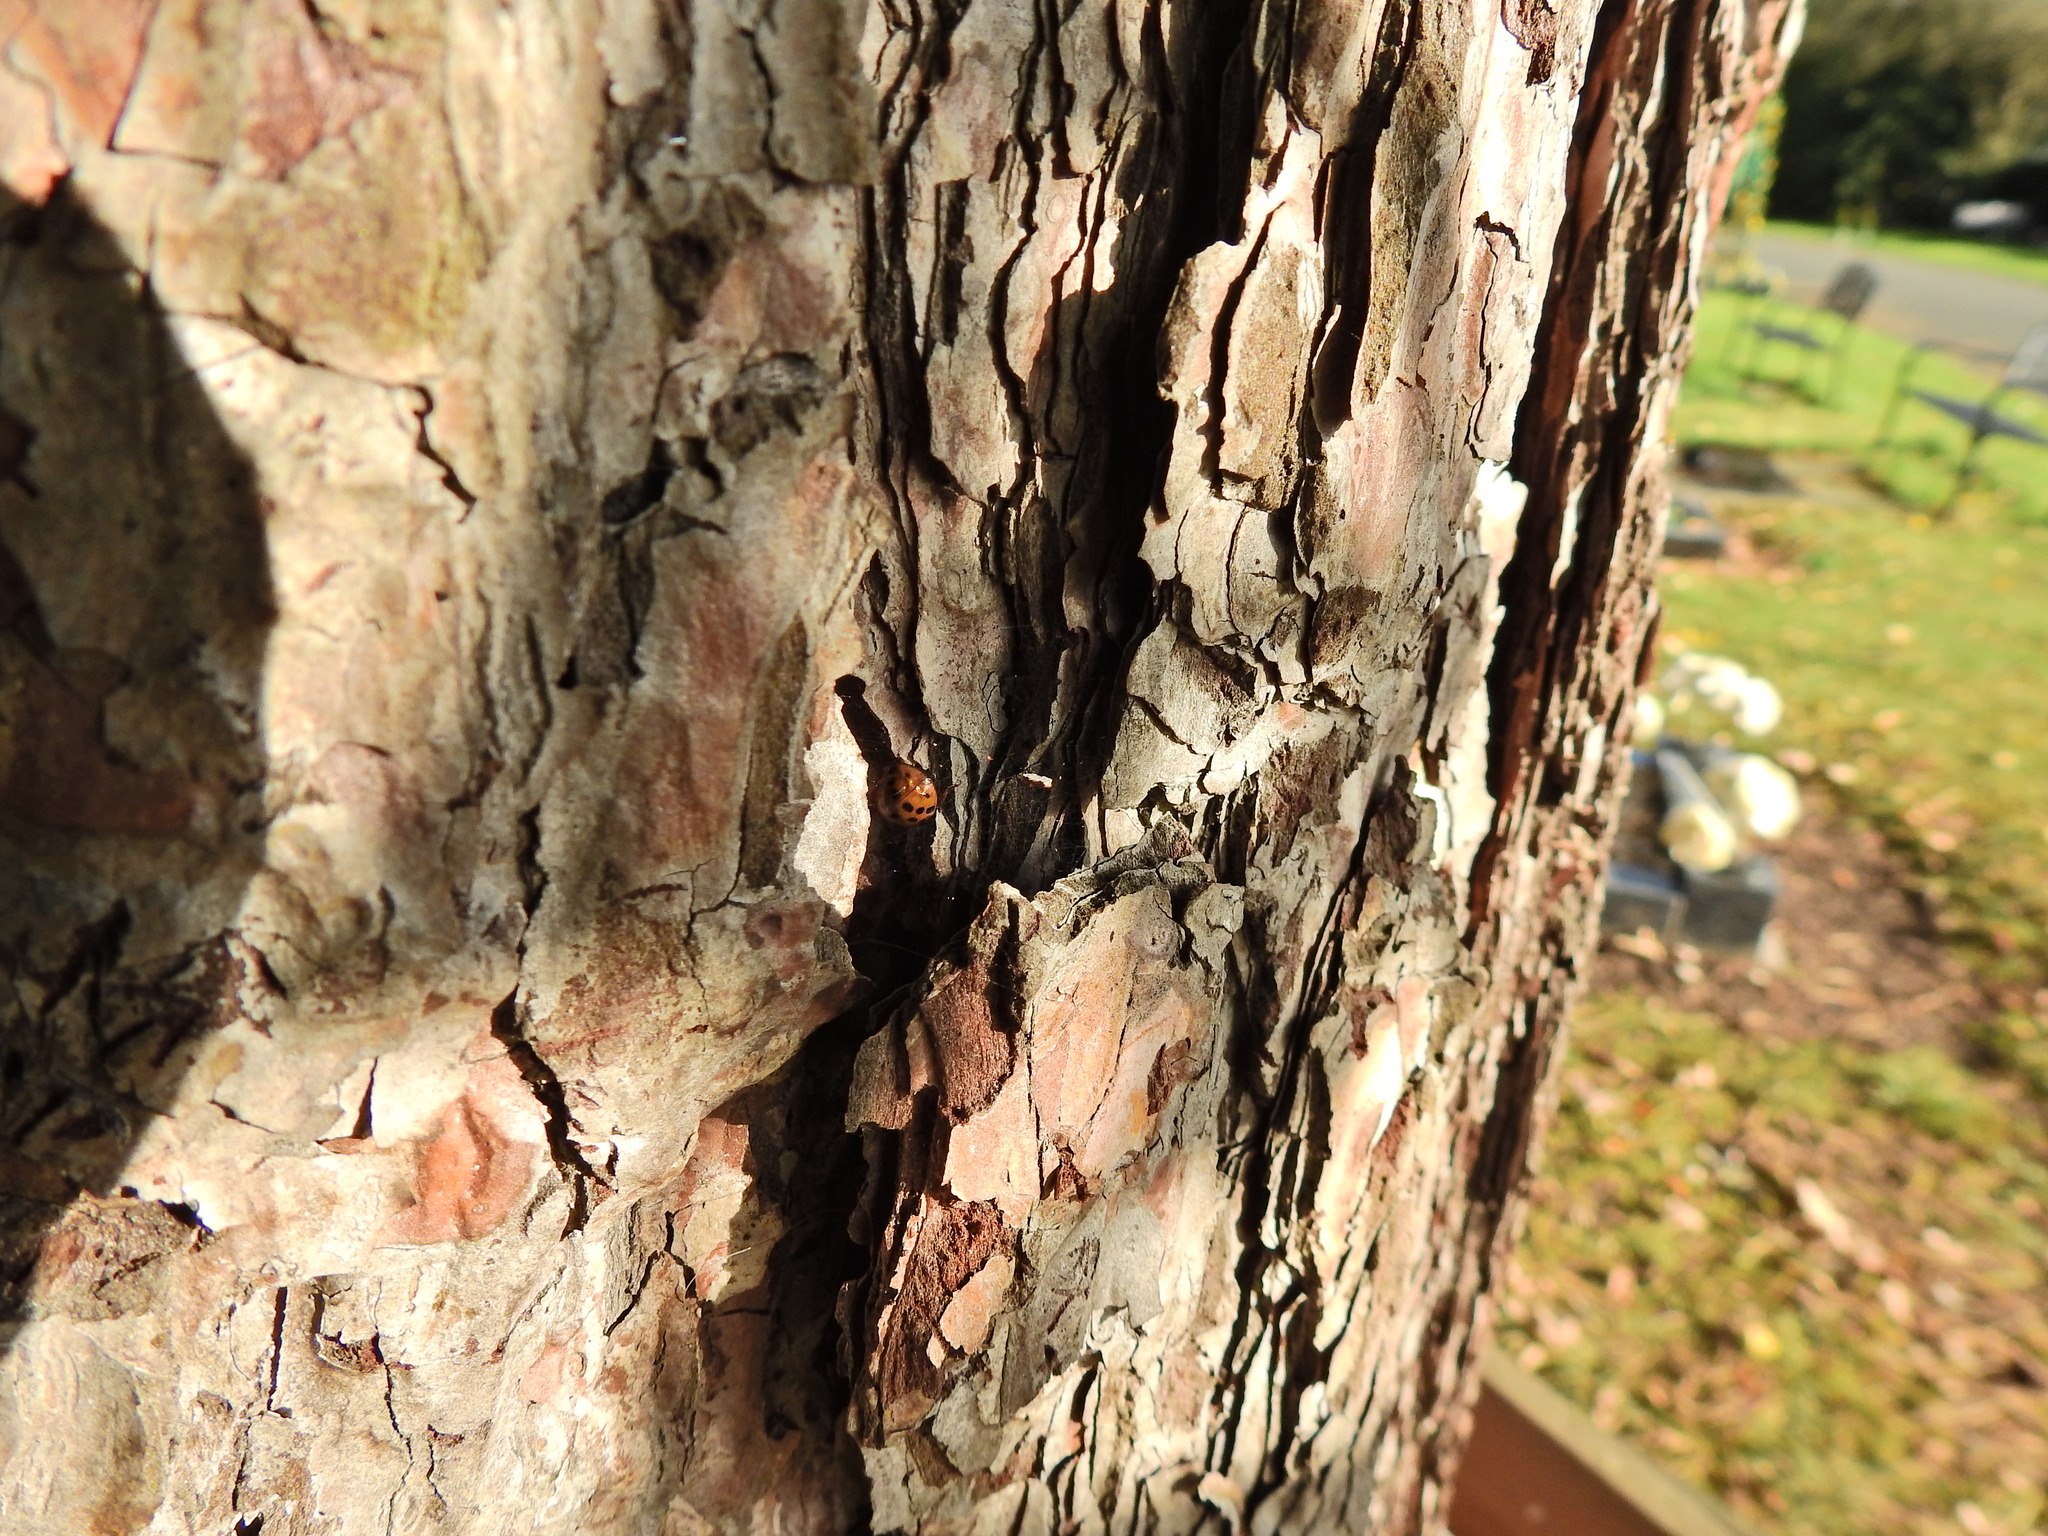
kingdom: Animalia
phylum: Arthropoda
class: Insecta
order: Coleoptera
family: Coccinellidae
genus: Harmonia
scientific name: Harmonia axyridis
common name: Harlequin ladybird
